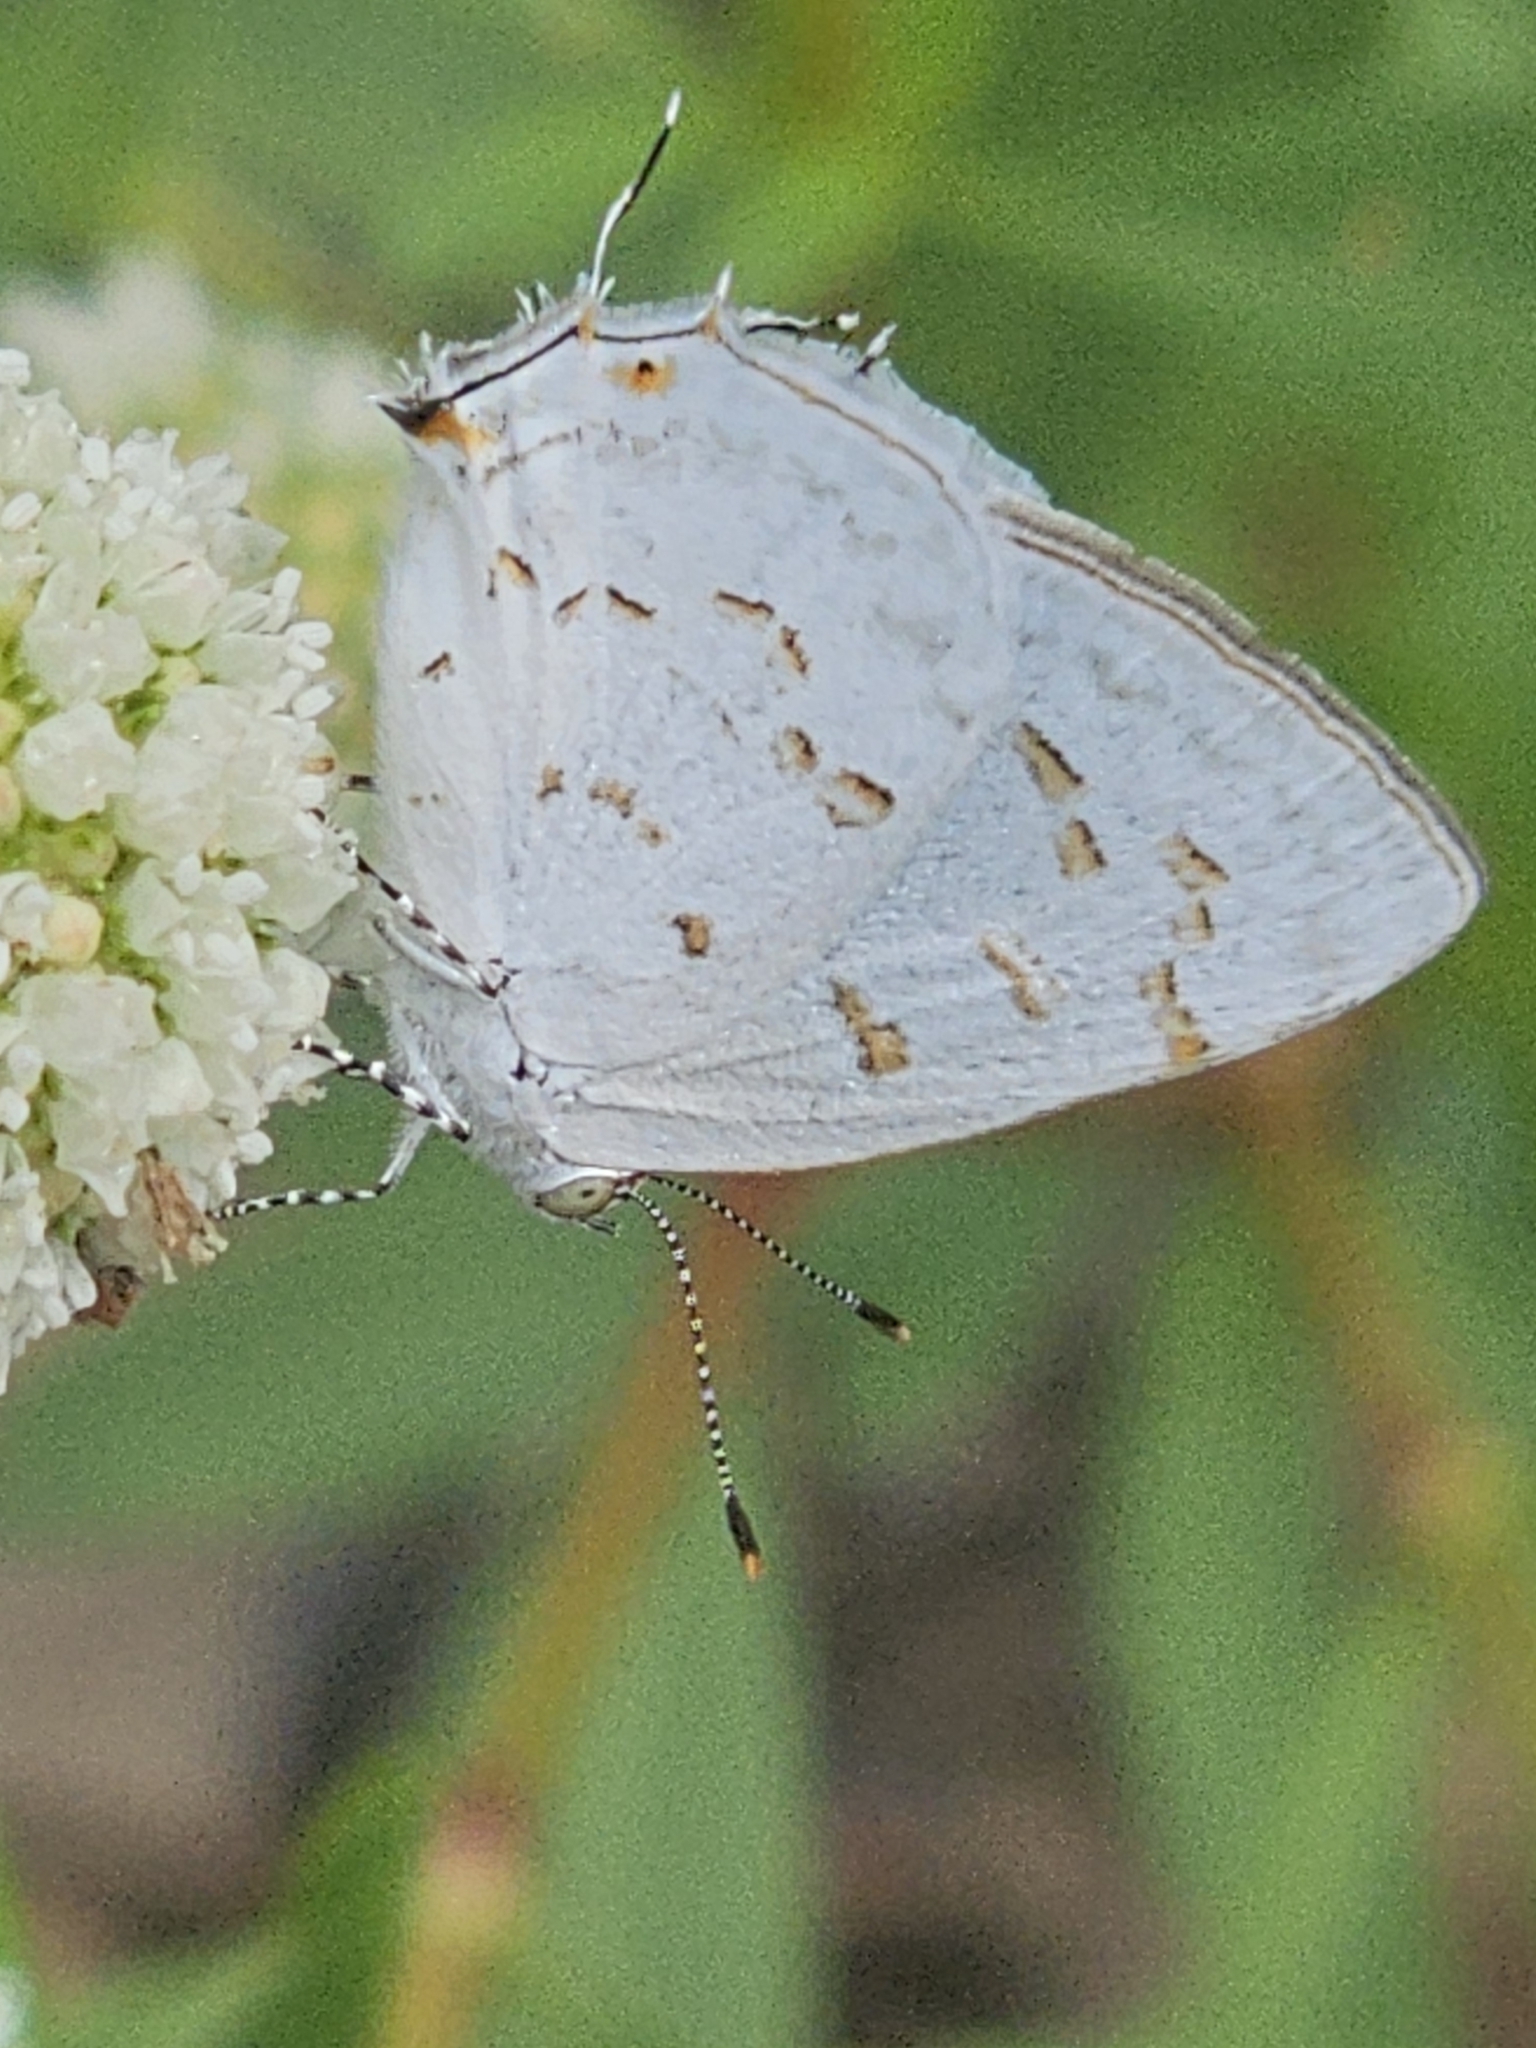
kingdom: Animalia
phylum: Arthropoda
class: Insecta
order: Lepidoptera
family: Lycaenidae
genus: Thecla
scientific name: Thecla una
